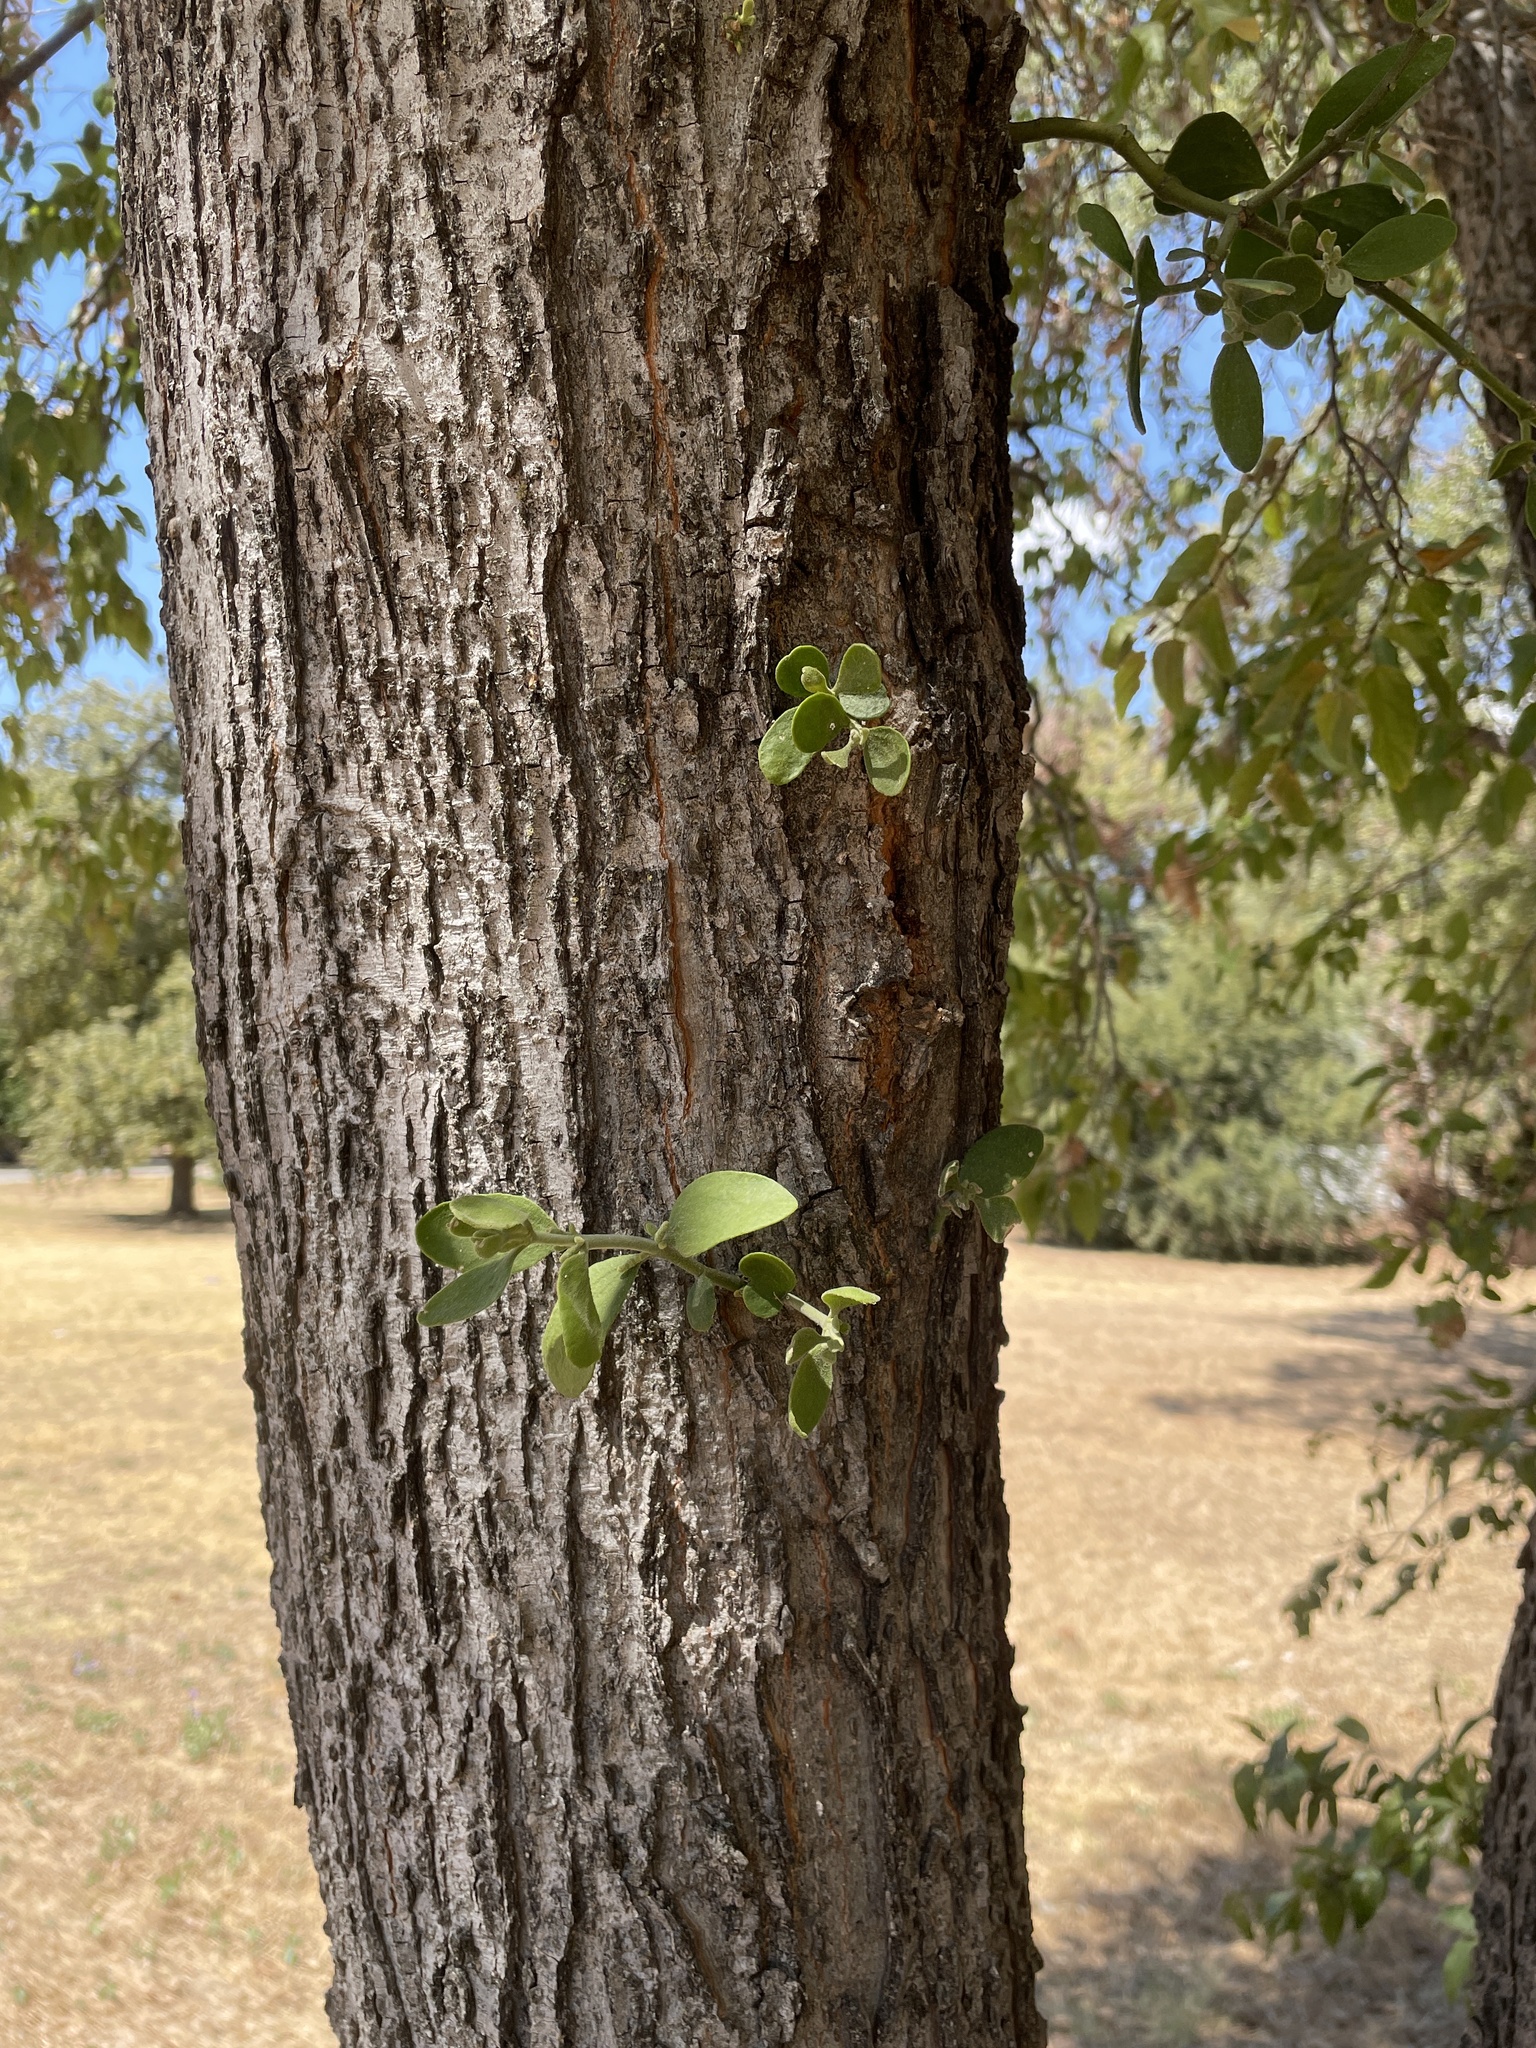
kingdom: Plantae
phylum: Tracheophyta
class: Magnoliopsida
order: Santalales
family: Viscaceae
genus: Phoradendron
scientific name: Phoradendron leucarpum
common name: Pacific mistletoe
